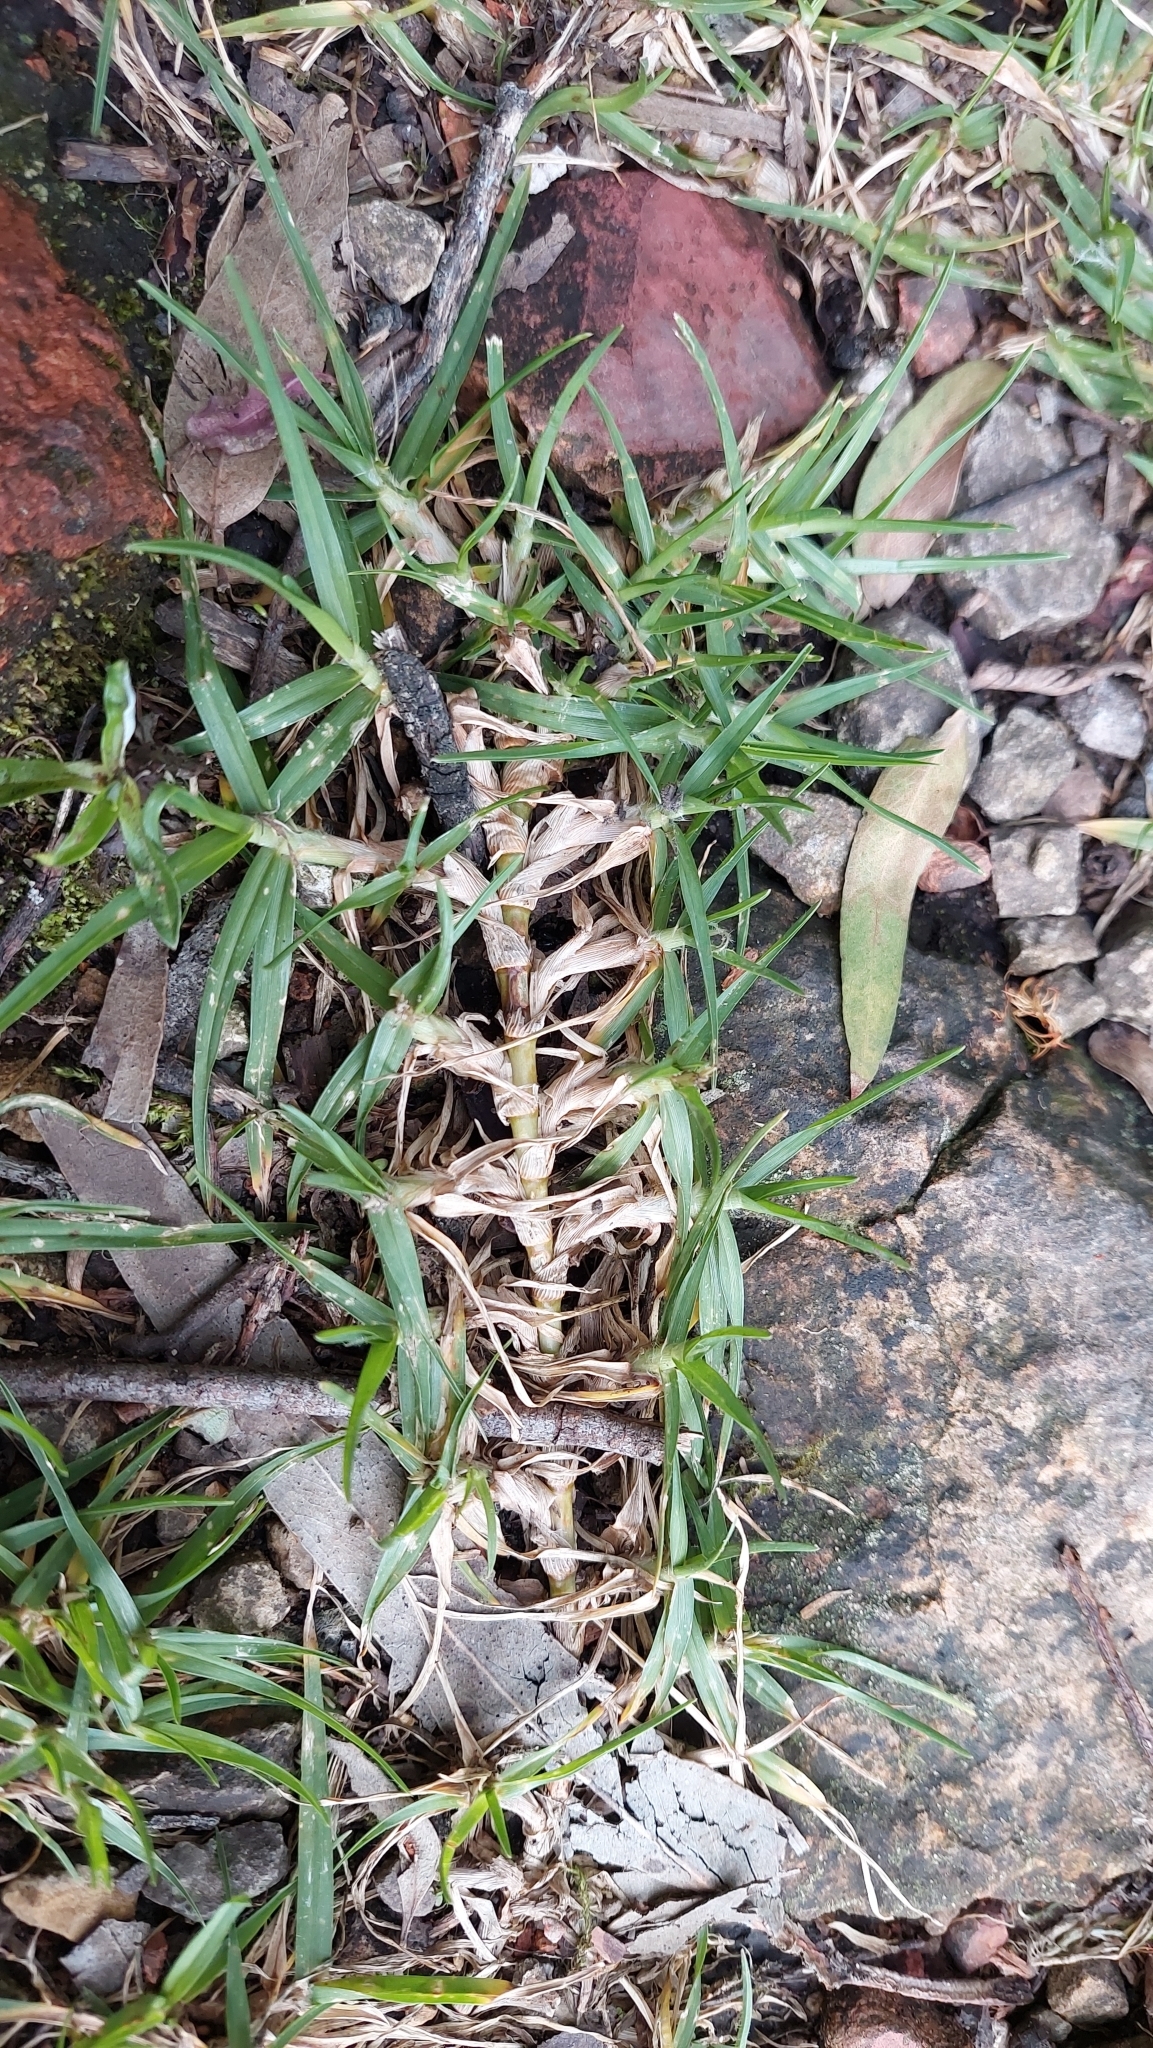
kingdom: Plantae
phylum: Tracheophyta
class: Liliopsida
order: Poales
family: Poaceae
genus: Cenchrus
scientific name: Cenchrus clandestinus
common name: Kikuyugrass
